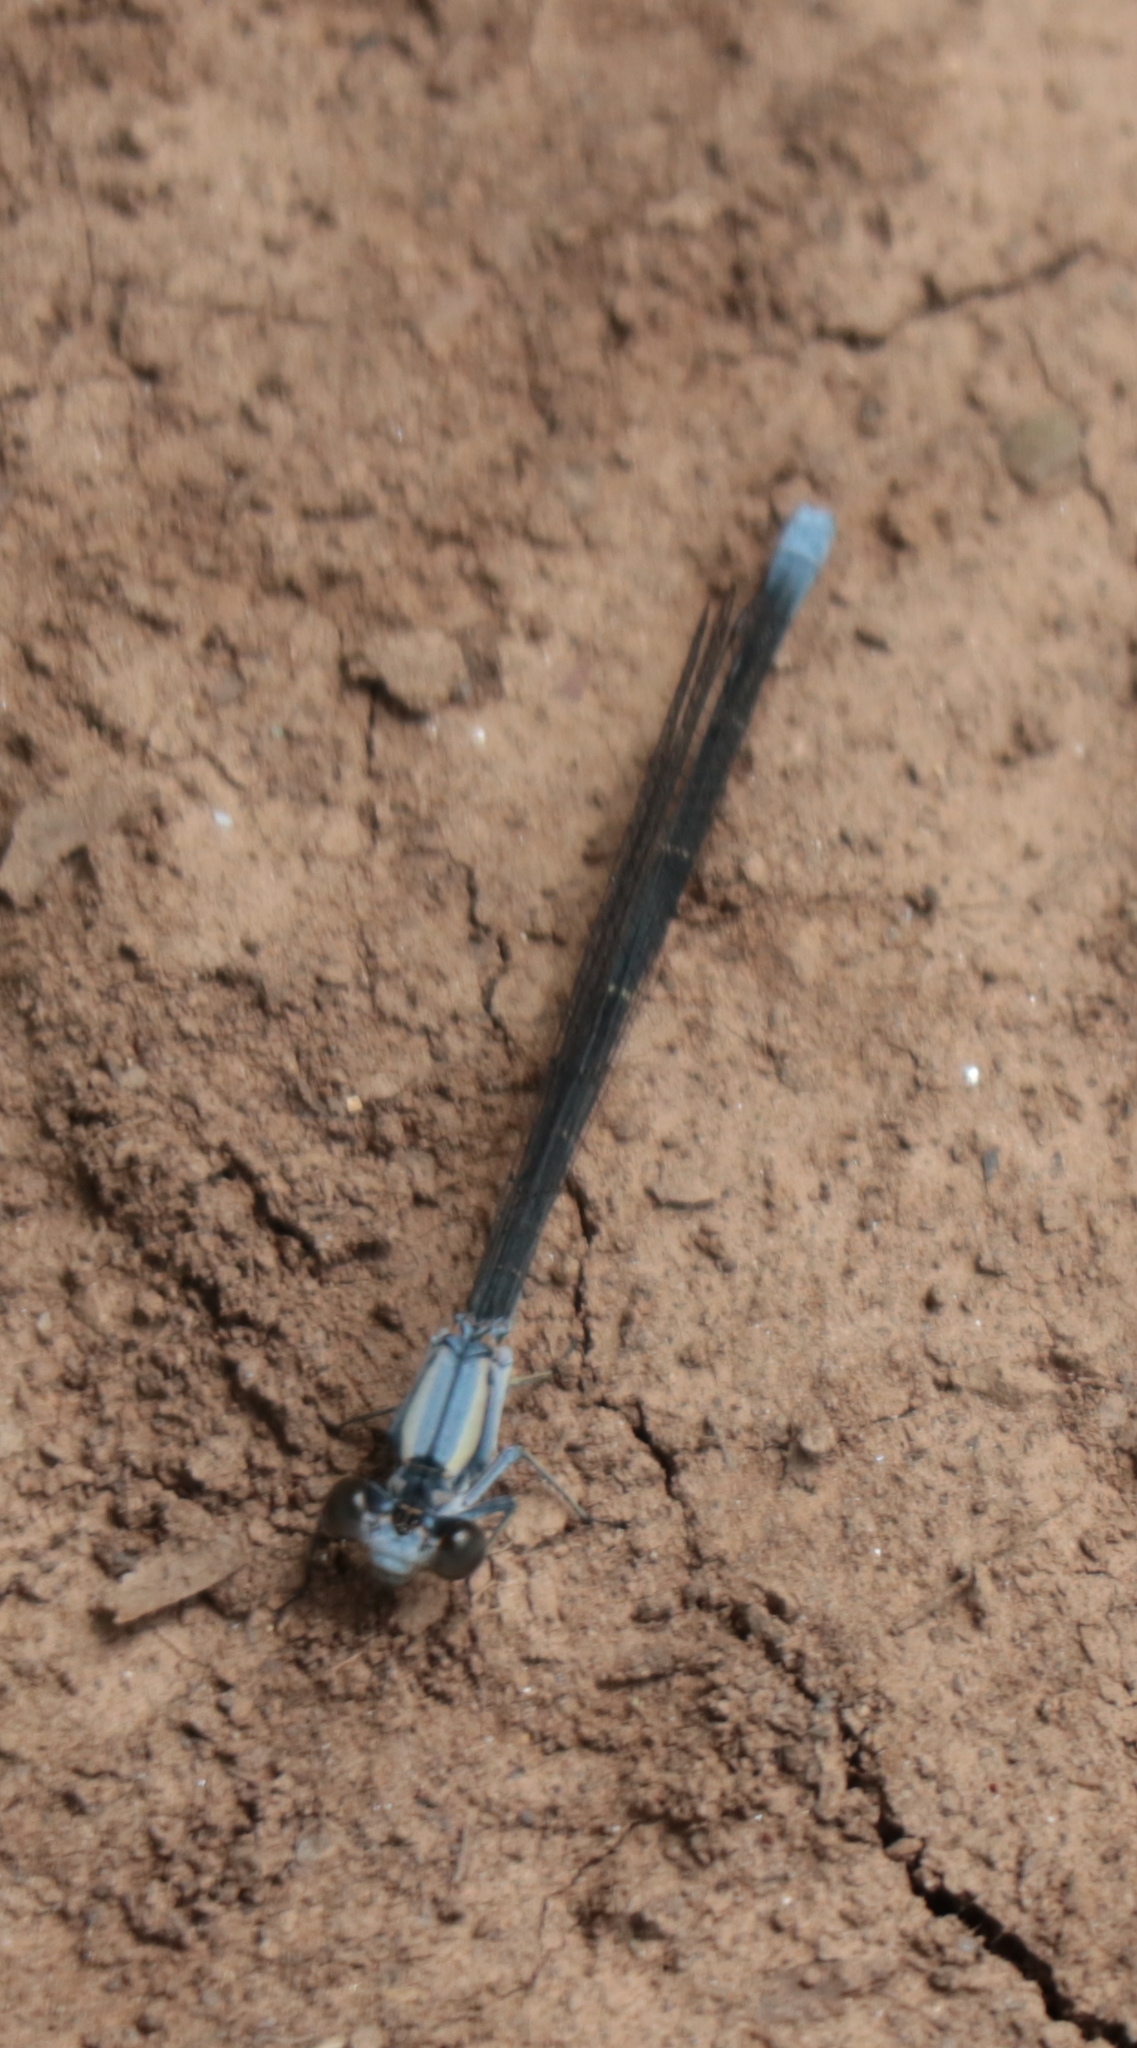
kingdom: Animalia
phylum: Arthropoda
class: Insecta
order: Odonata
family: Coenagrionidae
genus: Argia
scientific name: Argia moesta
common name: Powdered dancer
